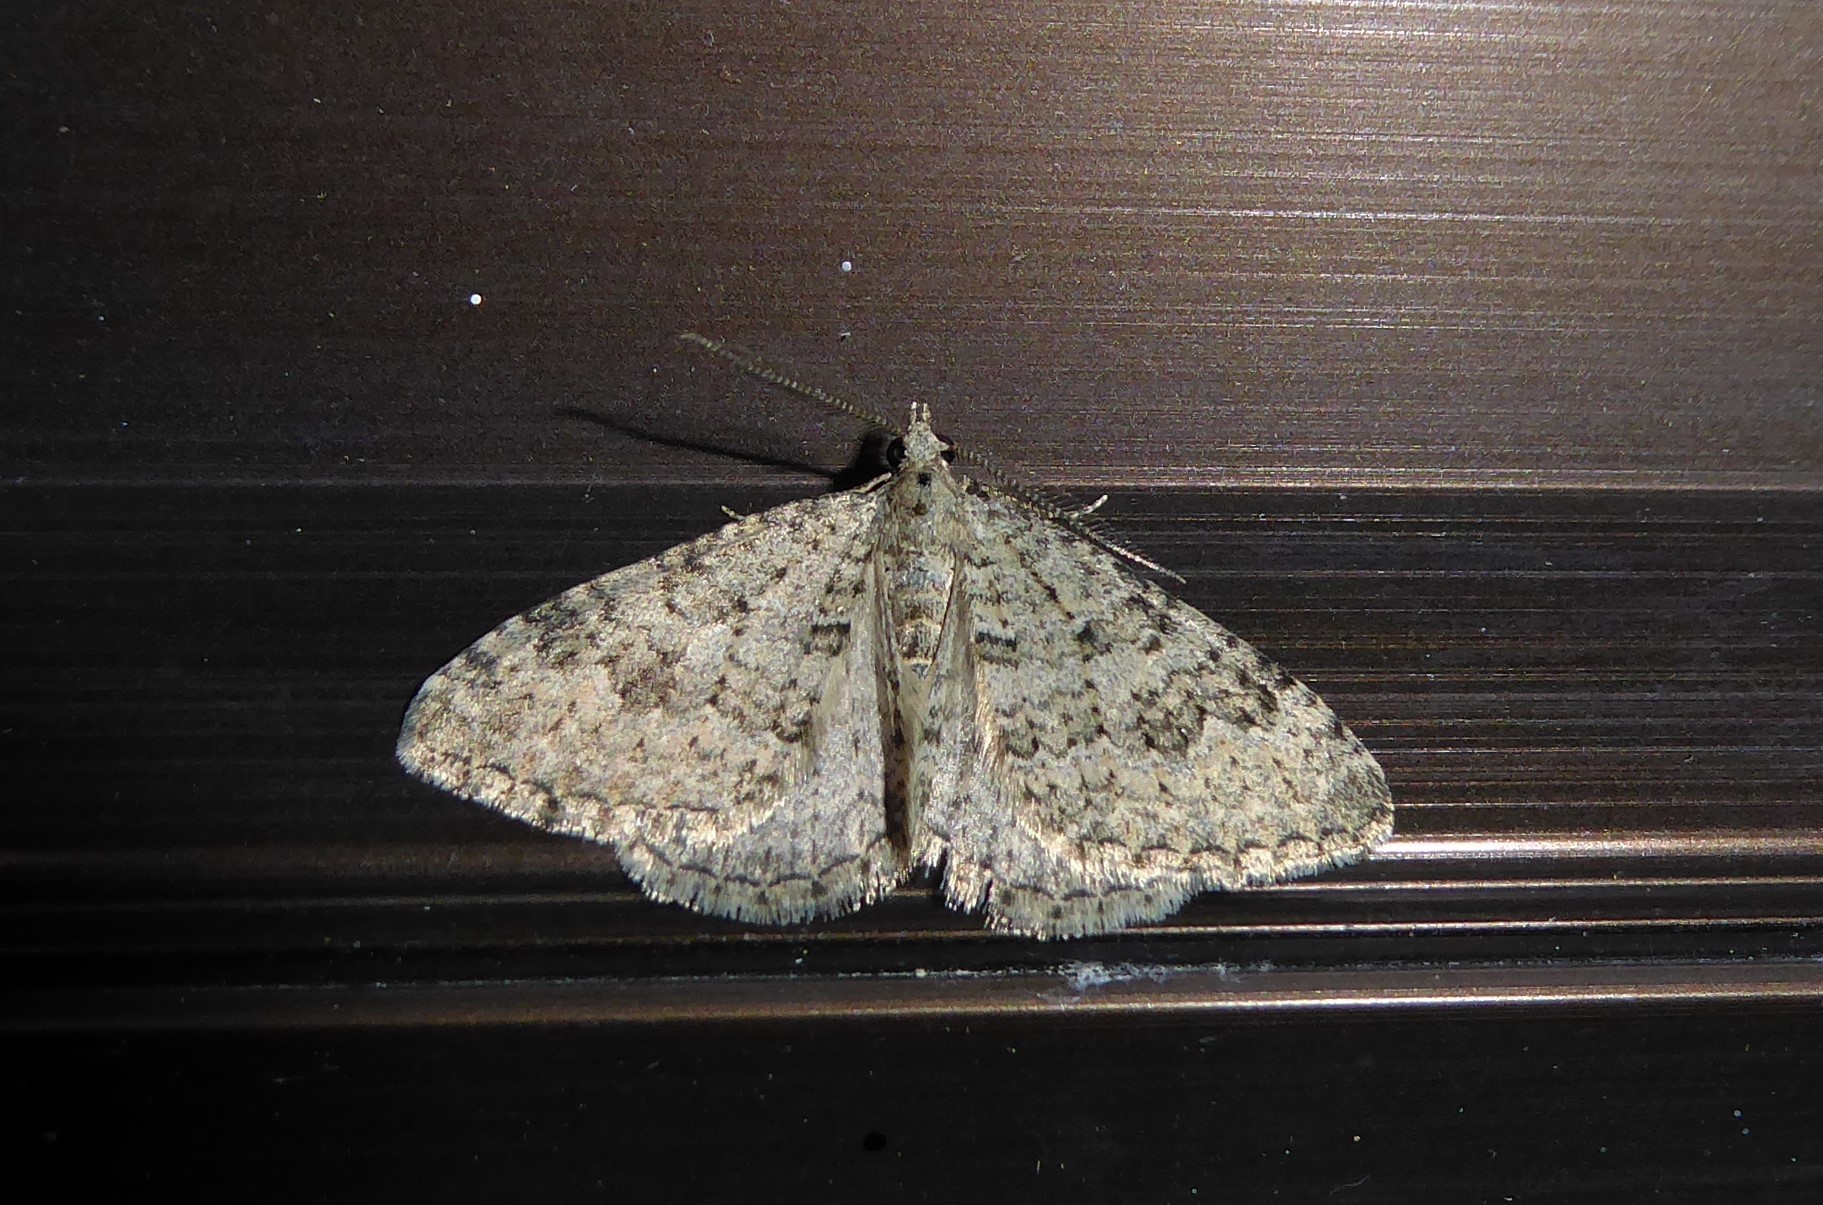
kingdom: Animalia
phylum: Arthropoda
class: Insecta
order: Lepidoptera
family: Geometridae
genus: Helastia
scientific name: Helastia corcularia
